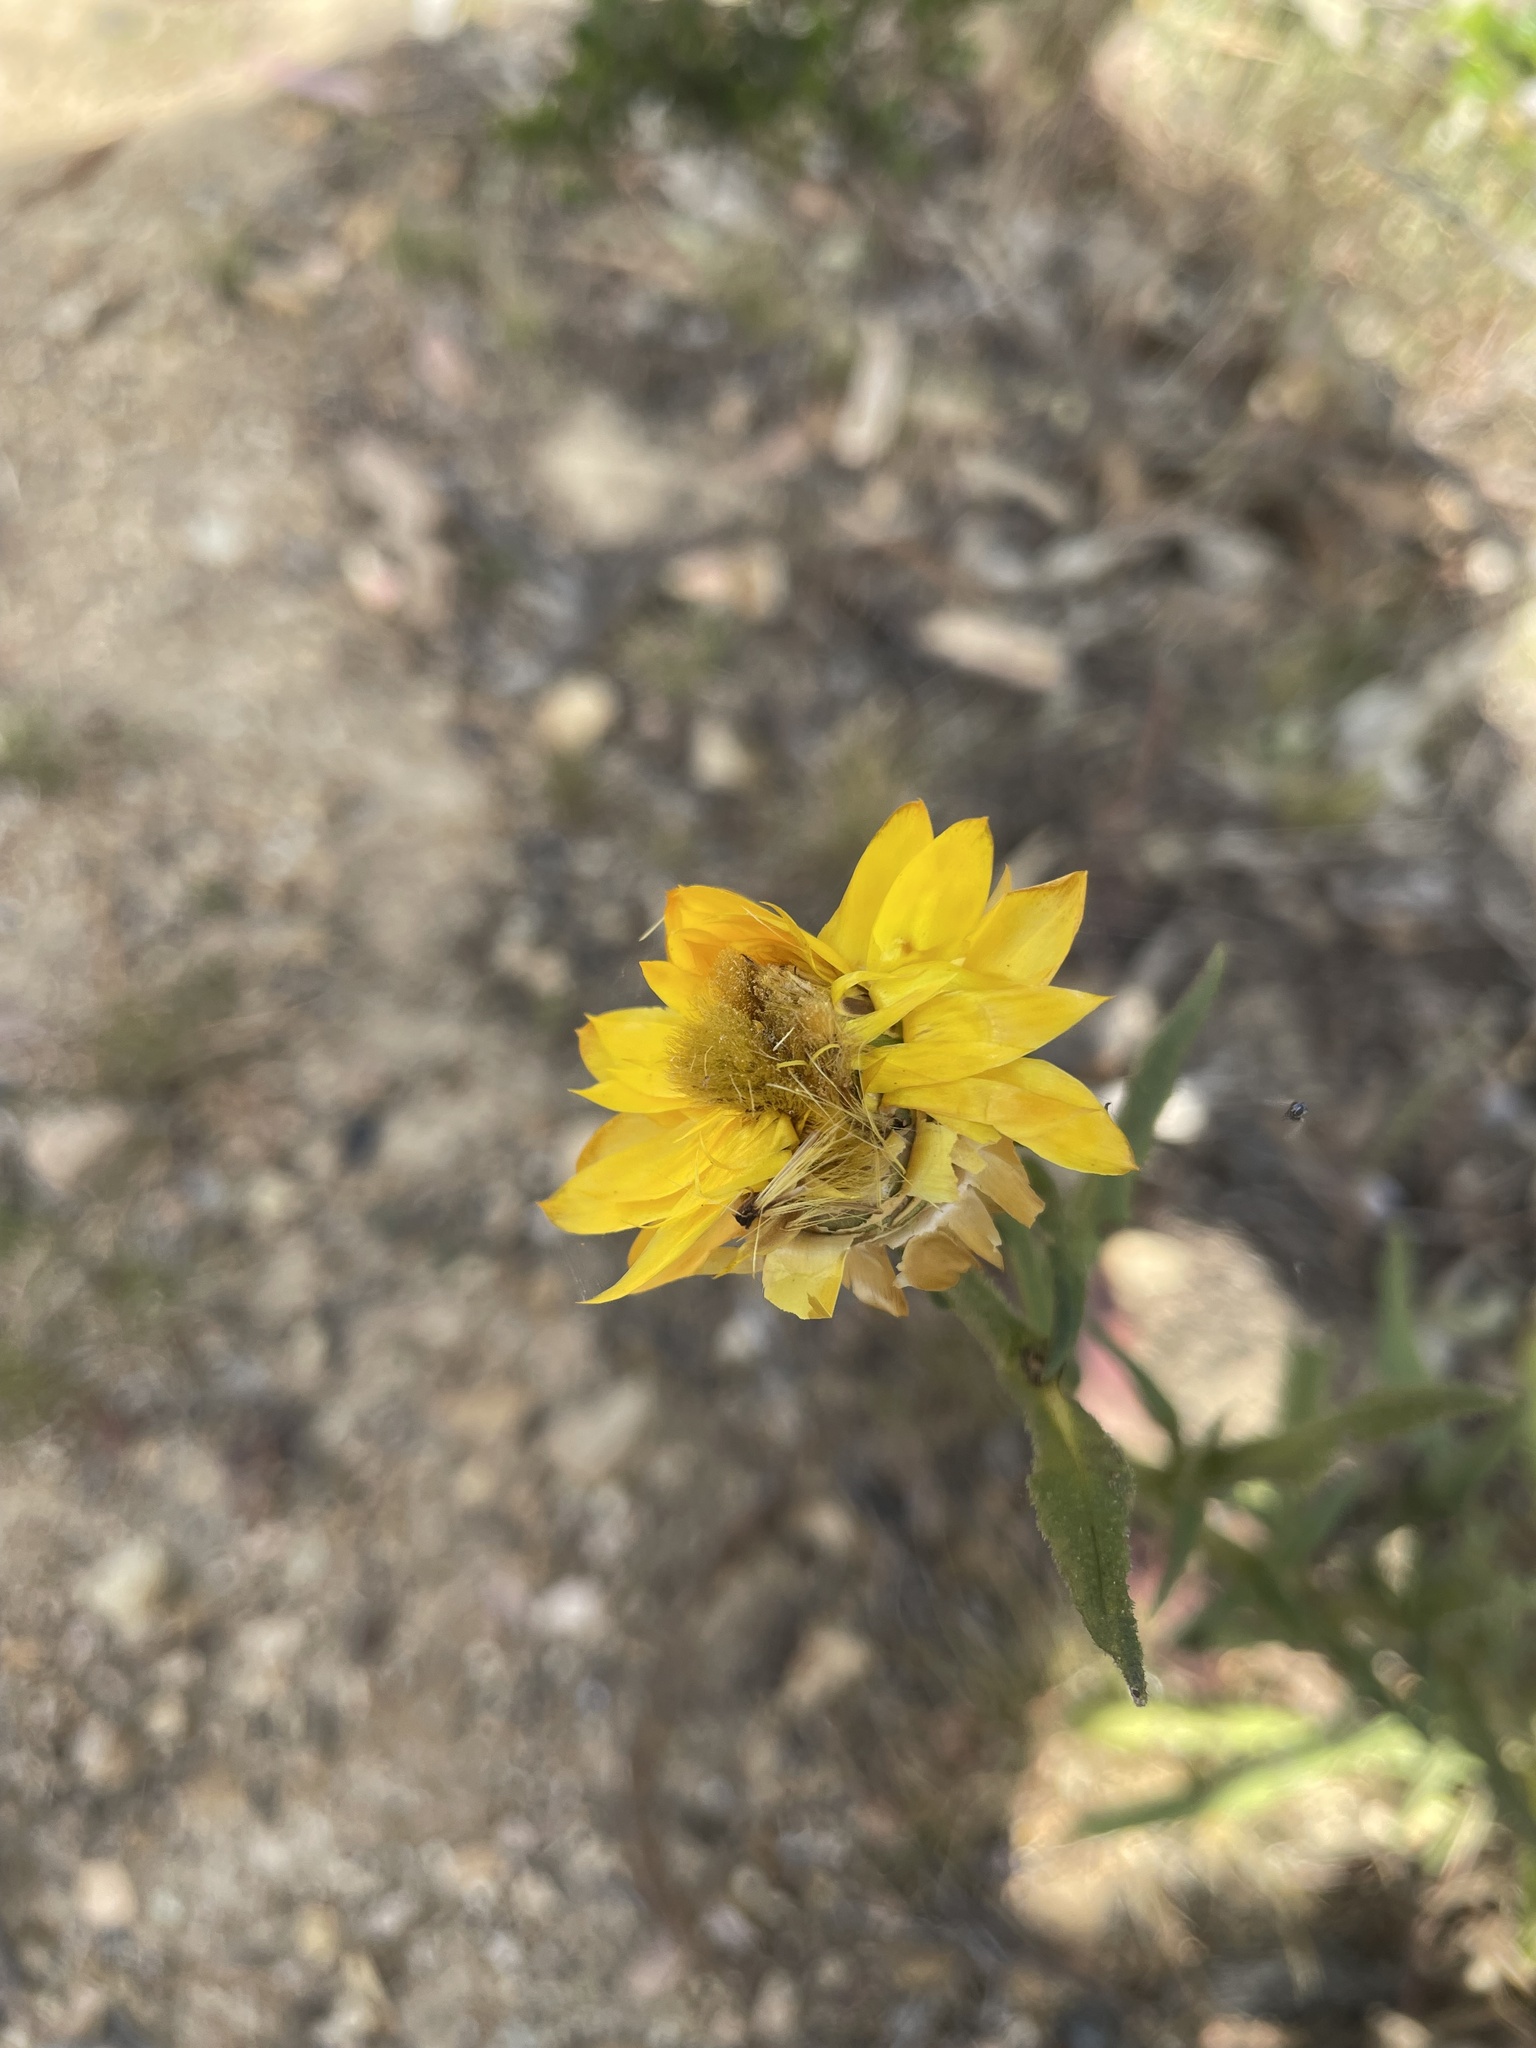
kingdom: Plantae
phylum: Tracheophyta
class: Magnoliopsida
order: Asterales
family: Asteraceae
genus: Xerochrysum
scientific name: Xerochrysum bracteatum
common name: Bracted strawflower
